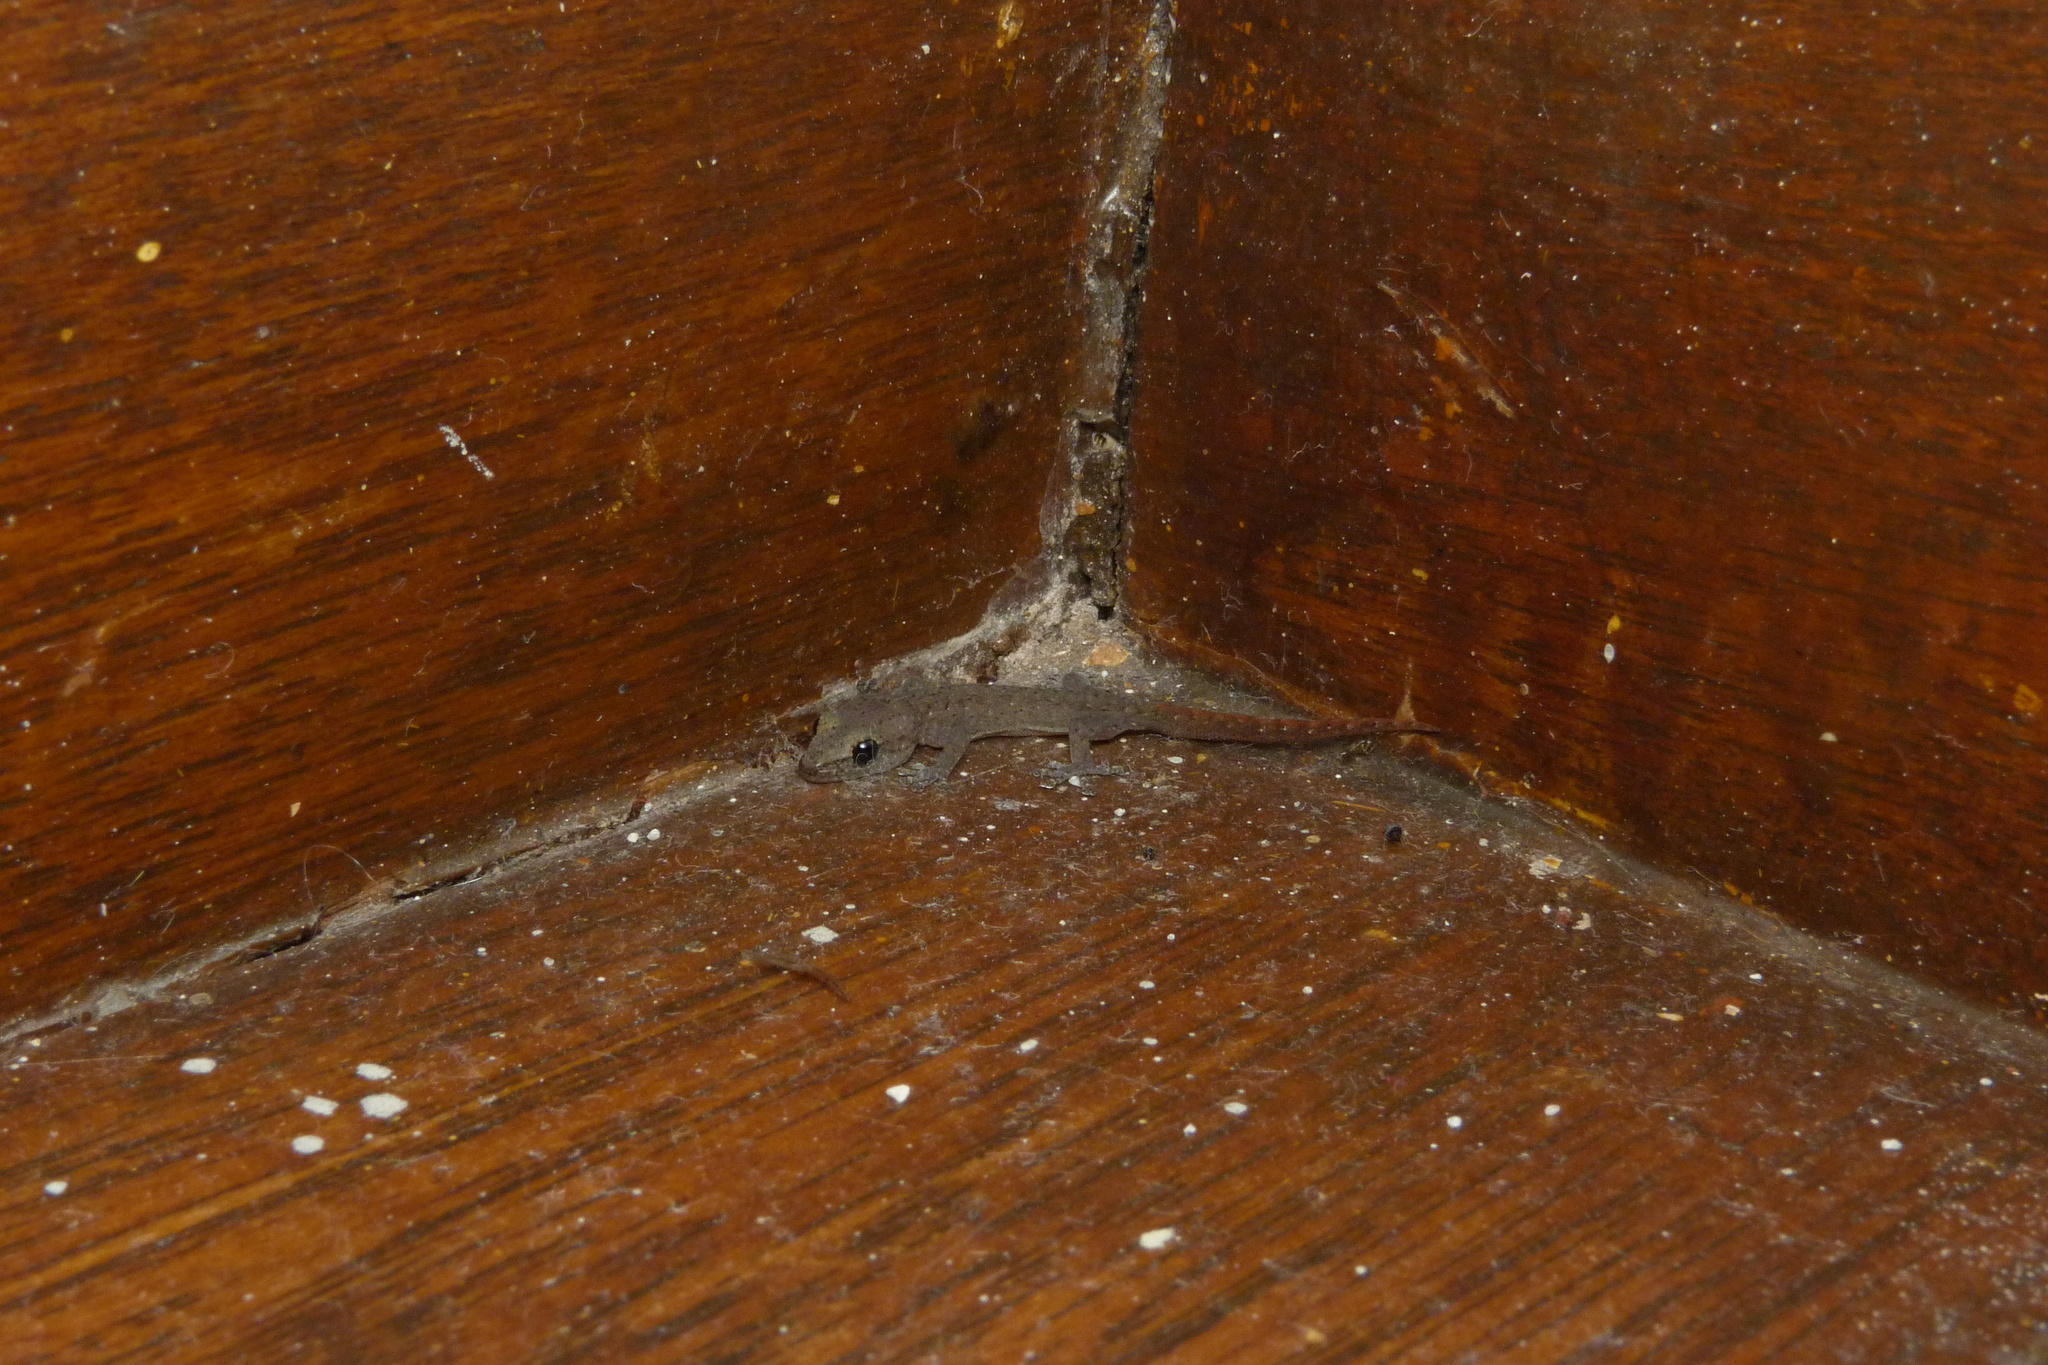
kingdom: Animalia
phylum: Chordata
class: Squamata
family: Gekkonidae
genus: Afrogecko
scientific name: Afrogecko porphyreus
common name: Marbled leaf-toed gecko
